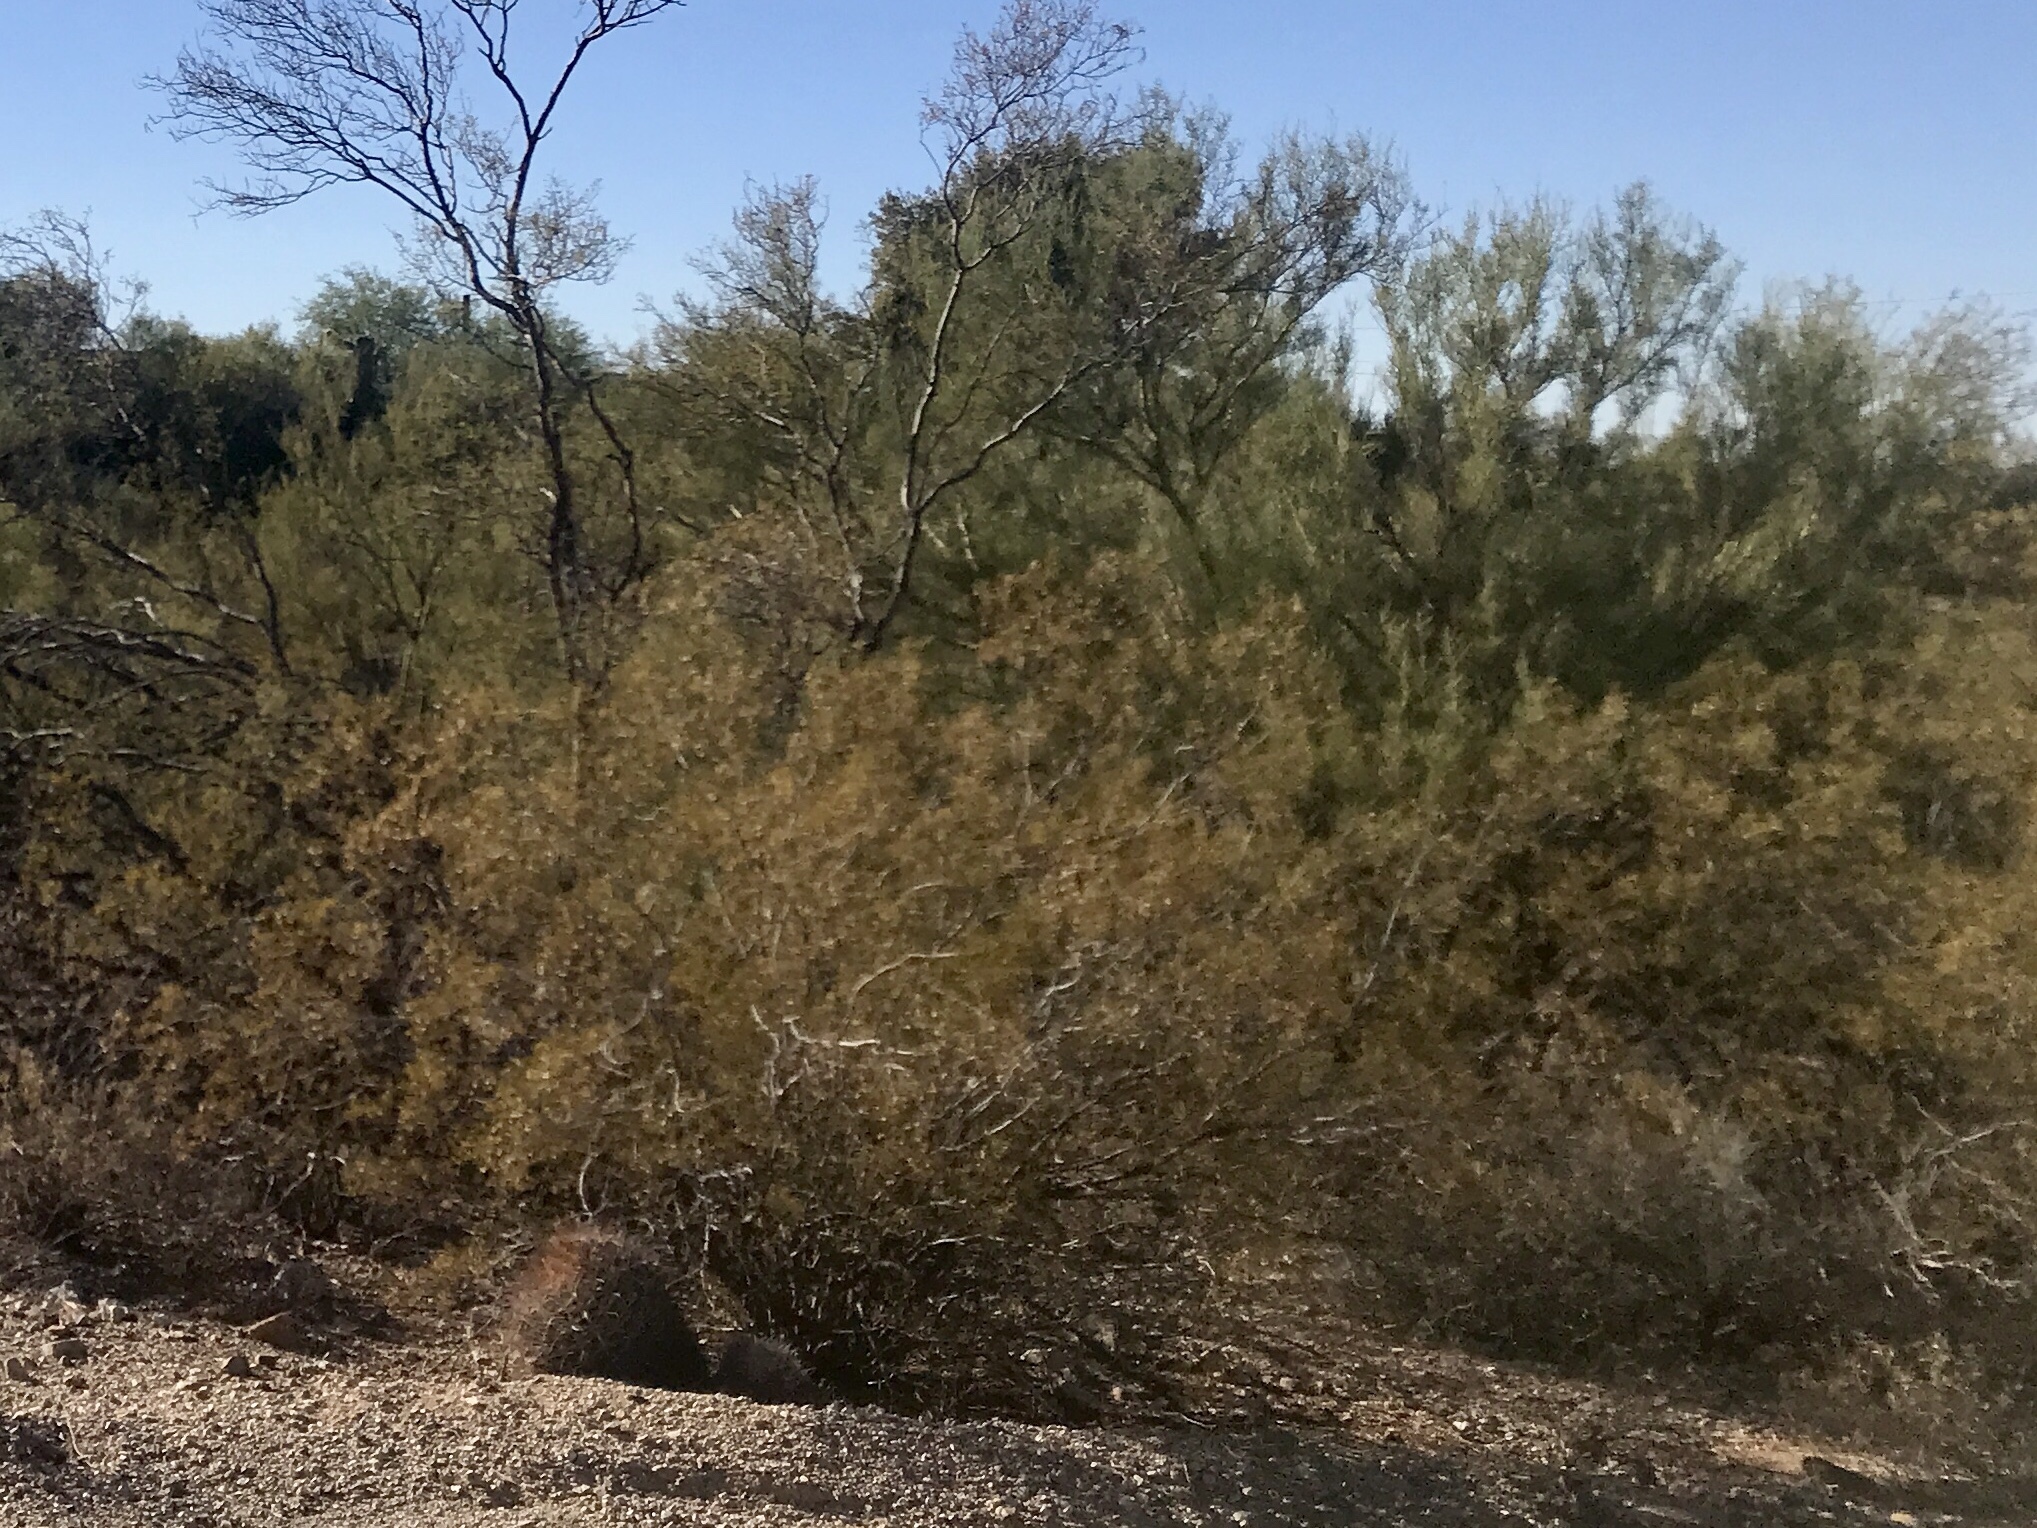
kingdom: Plantae
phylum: Tracheophyta
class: Magnoliopsida
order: Zygophyllales
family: Zygophyllaceae
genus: Larrea
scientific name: Larrea tridentata
